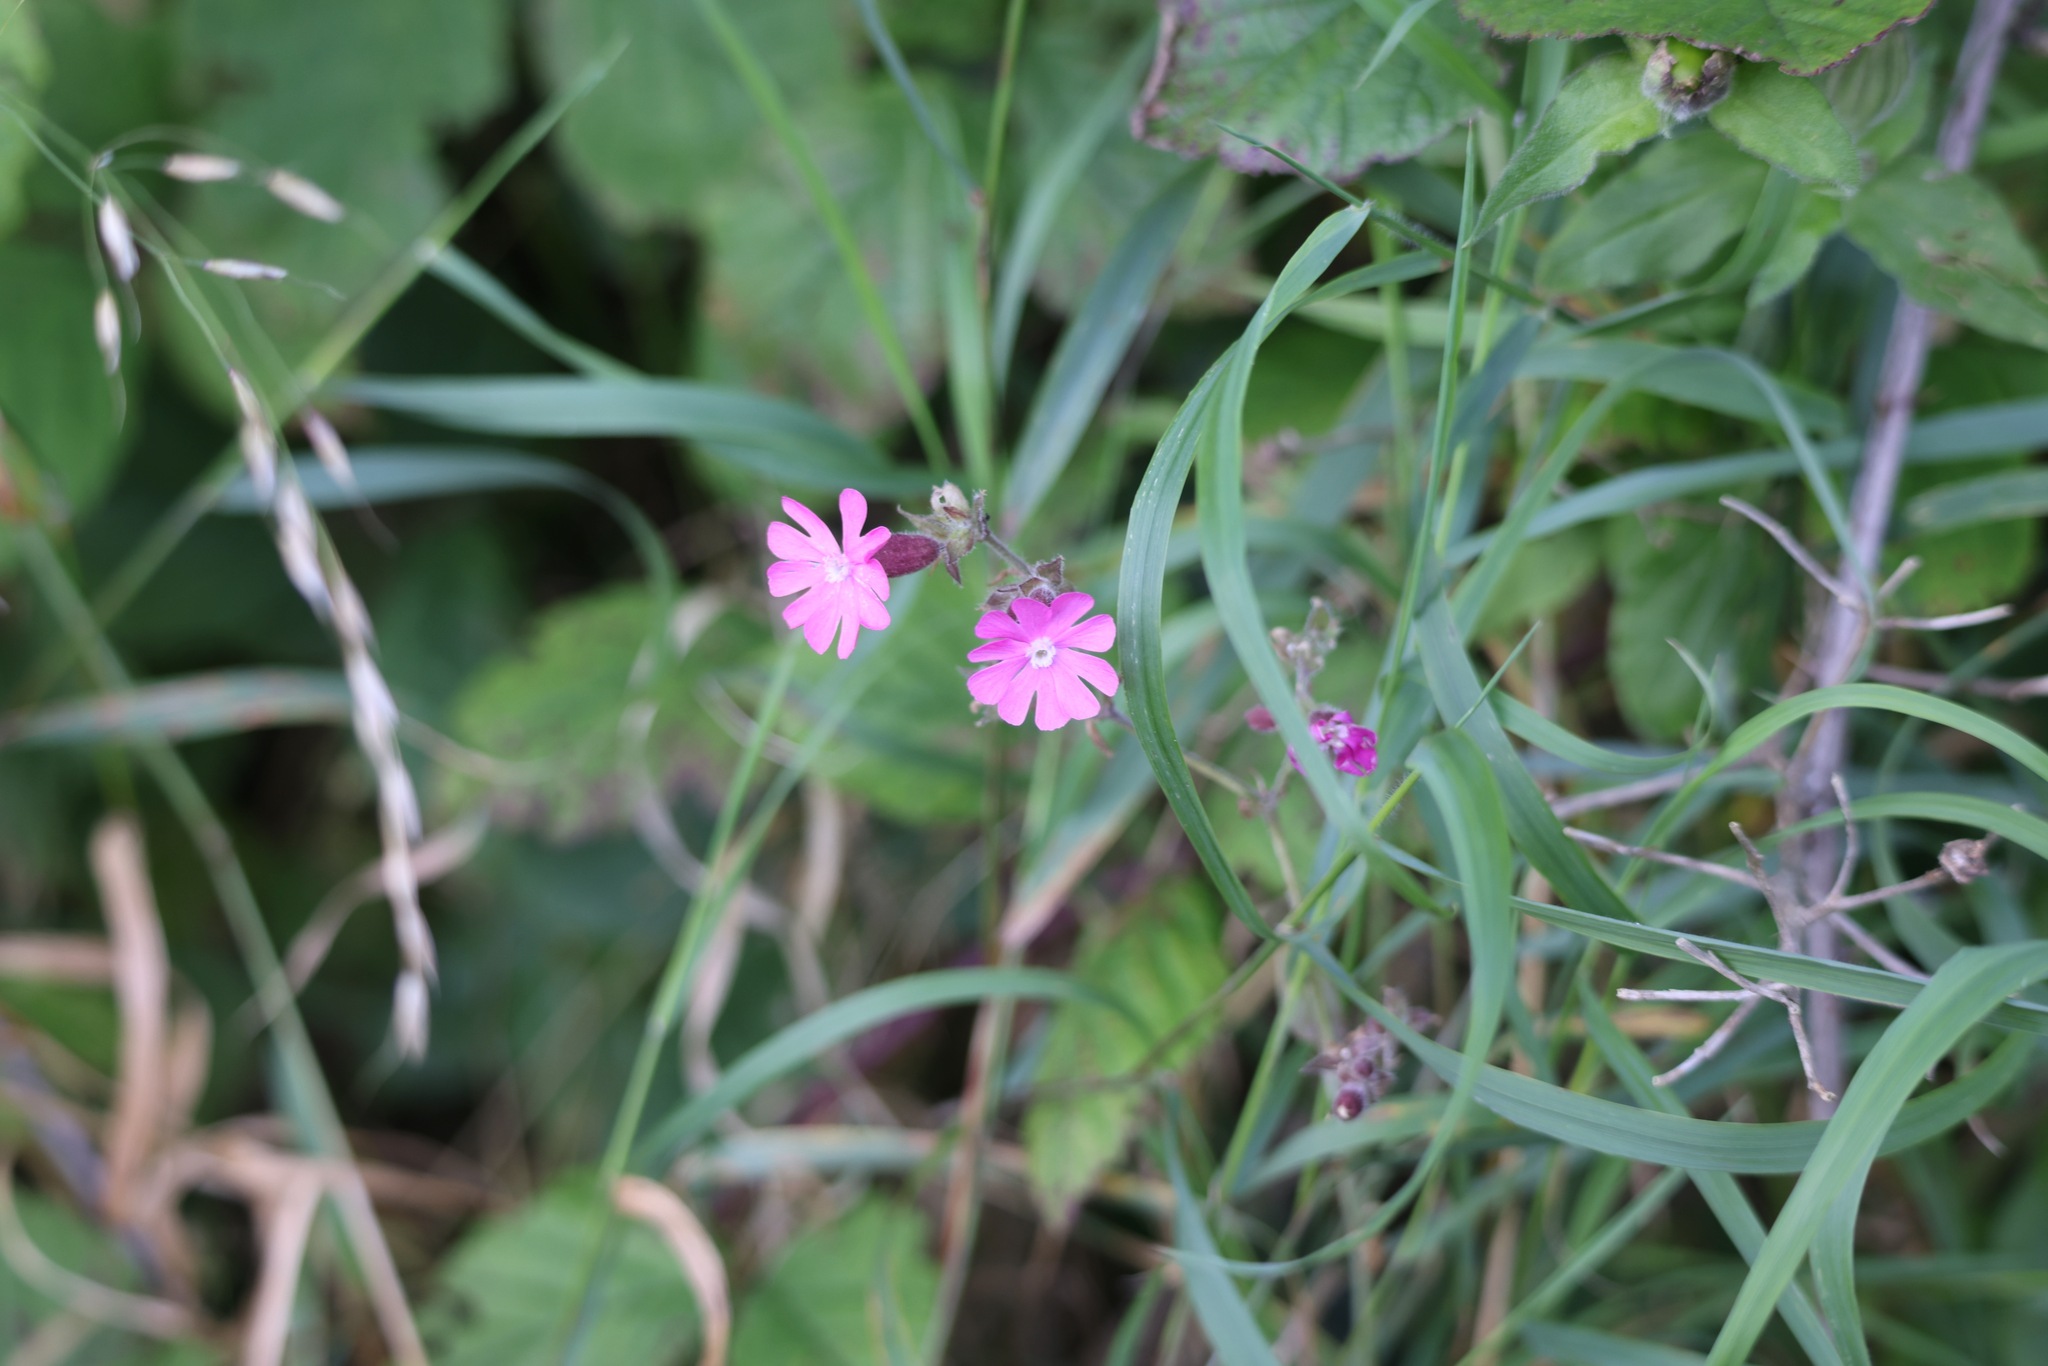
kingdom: Plantae
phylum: Tracheophyta
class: Magnoliopsida
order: Caryophyllales
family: Caryophyllaceae
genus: Silene
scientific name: Silene dioica
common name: Red campion
